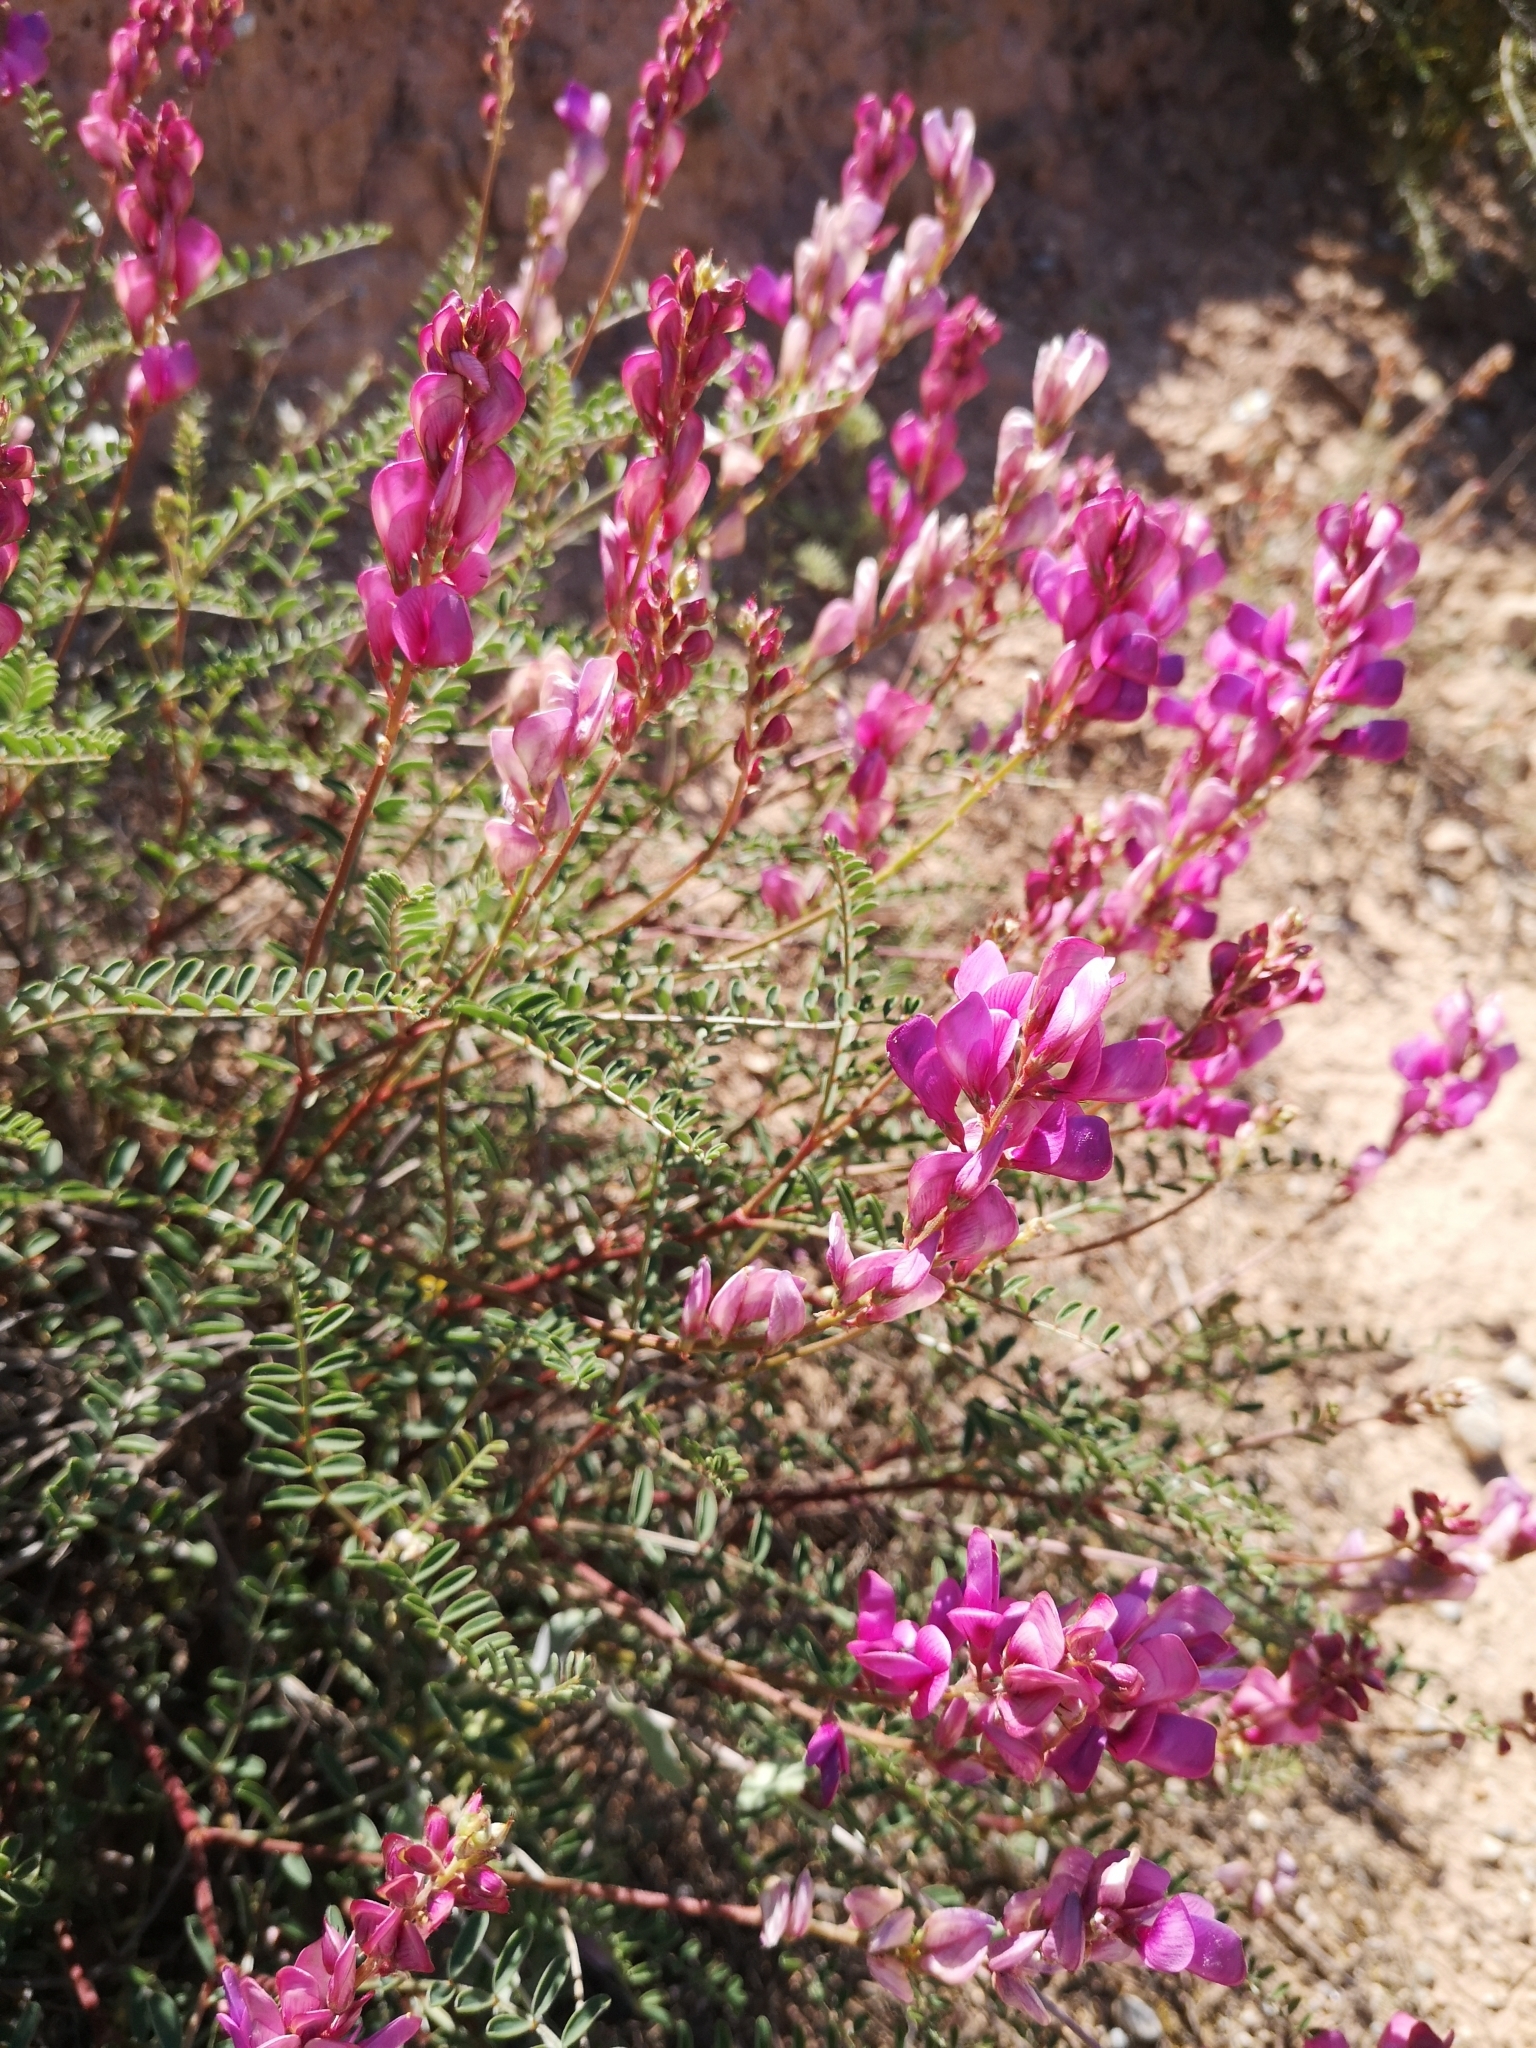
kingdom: Plantae
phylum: Tracheophyta
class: Magnoliopsida
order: Fabales
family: Fabaceae
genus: Hedysarum
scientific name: Hedysarum boveanum
